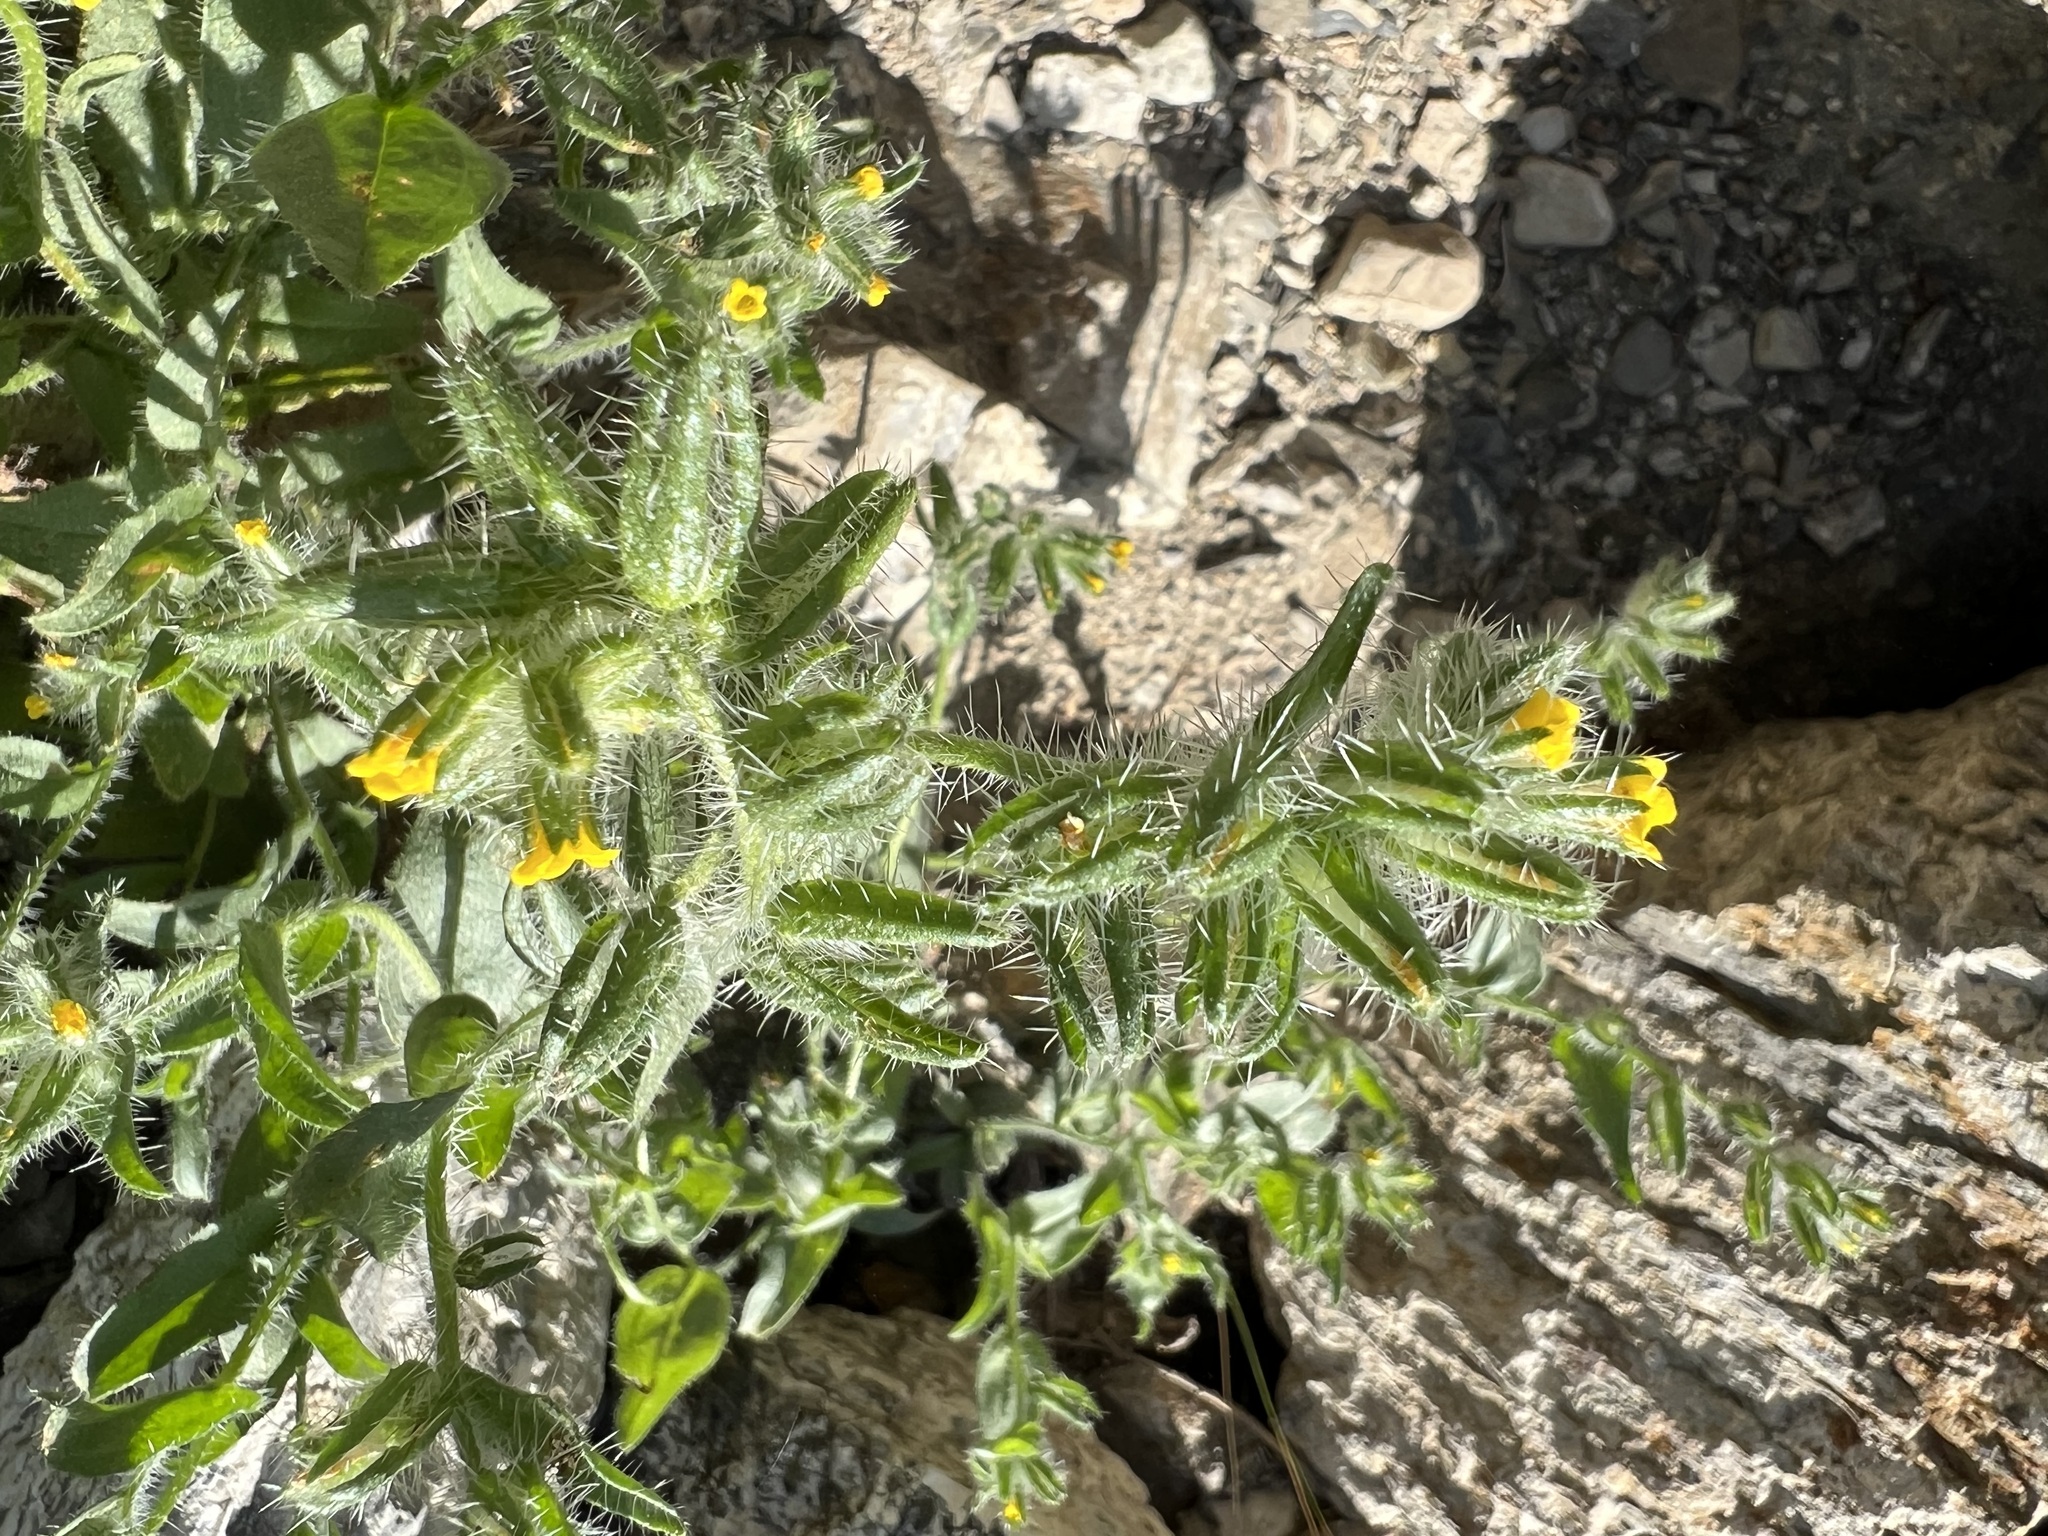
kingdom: Plantae
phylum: Tracheophyta
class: Magnoliopsida
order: Boraginales
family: Boraginaceae
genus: Amsinckia
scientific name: Amsinckia tessellata
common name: Tessellate fiddleneck
